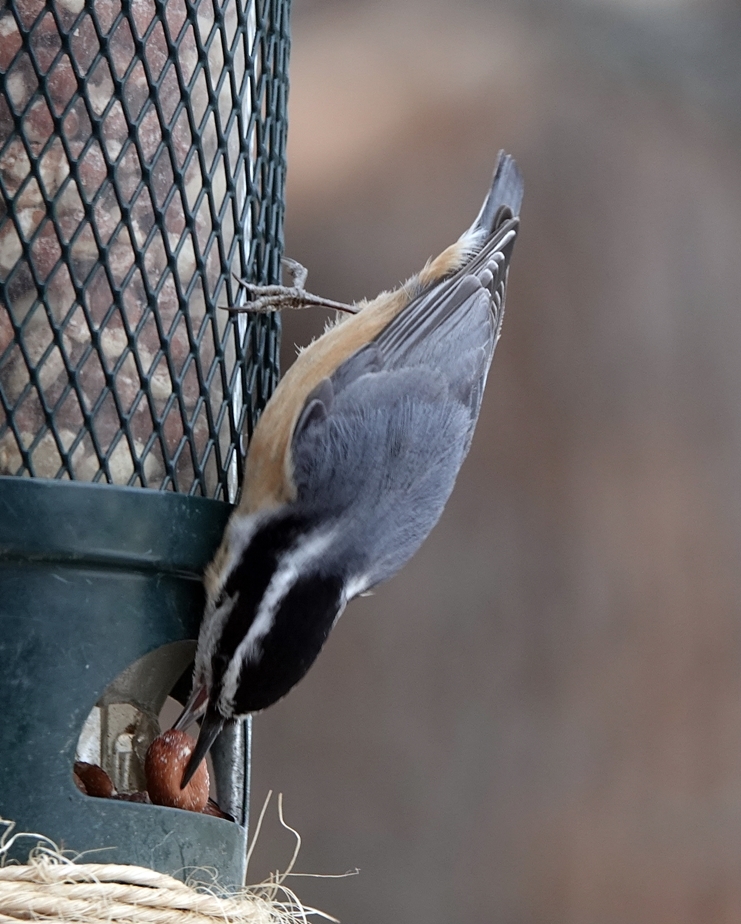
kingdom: Animalia
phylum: Chordata
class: Aves
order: Passeriformes
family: Sittidae
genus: Sitta
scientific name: Sitta canadensis
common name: Red-breasted nuthatch
